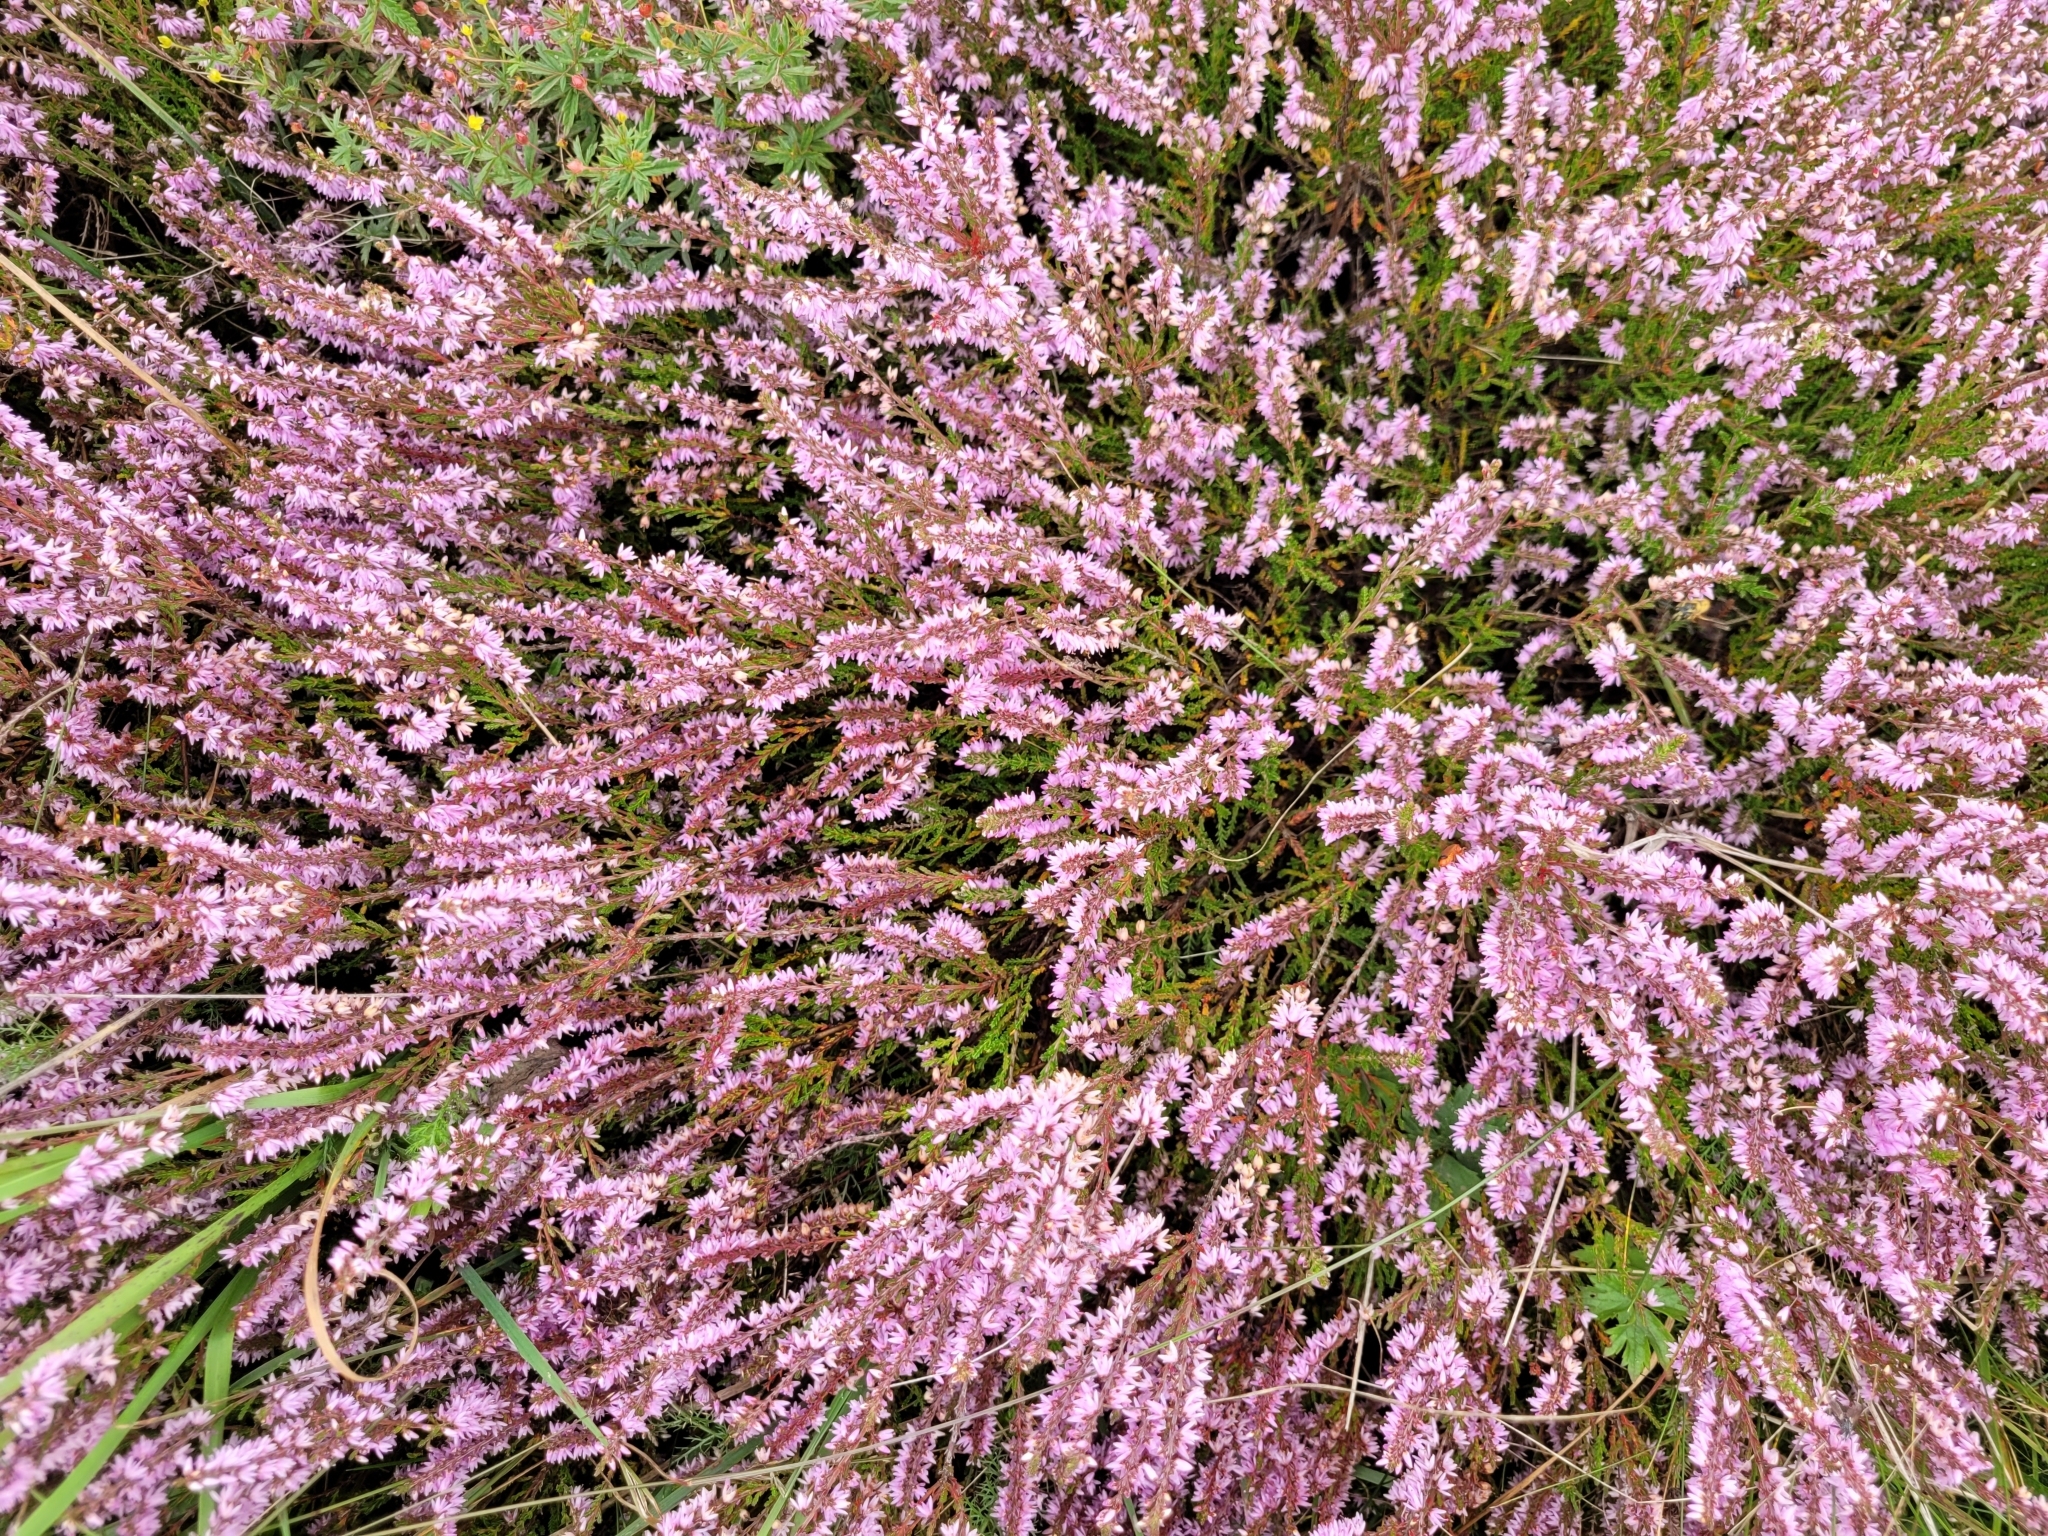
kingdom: Plantae
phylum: Tracheophyta
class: Magnoliopsida
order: Ericales
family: Ericaceae
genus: Calluna
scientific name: Calluna vulgaris
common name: Heather
